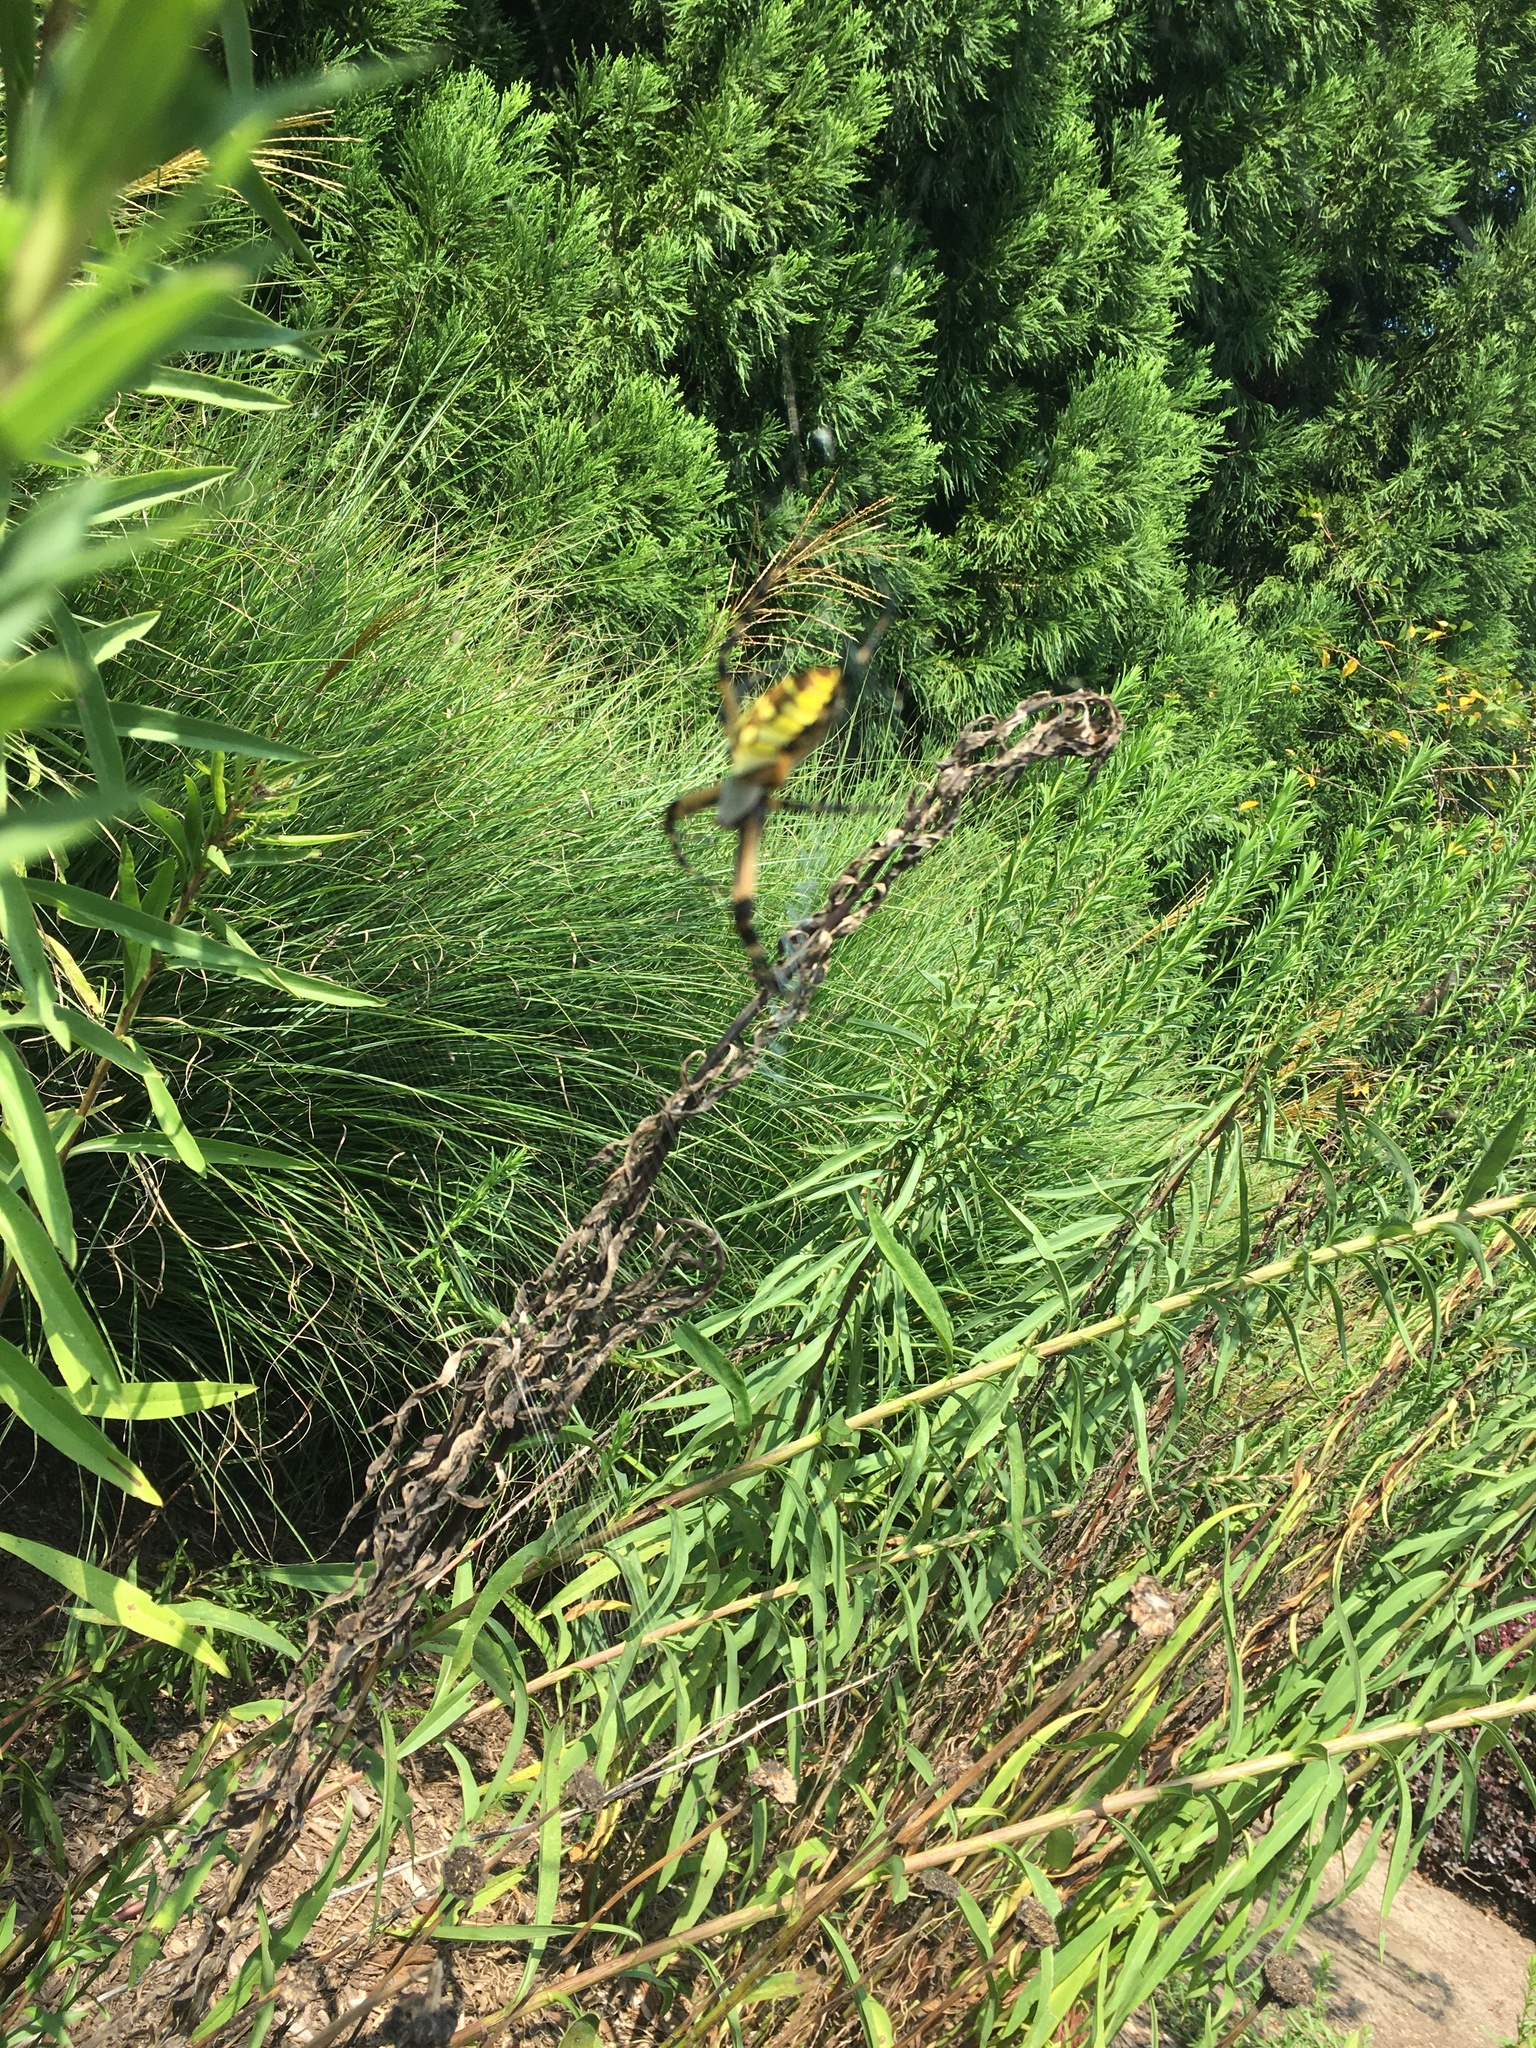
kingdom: Animalia
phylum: Arthropoda
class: Arachnida
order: Araneae
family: Araneidae
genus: Argiope
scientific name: Argiope aurantia
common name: Orb weavers
